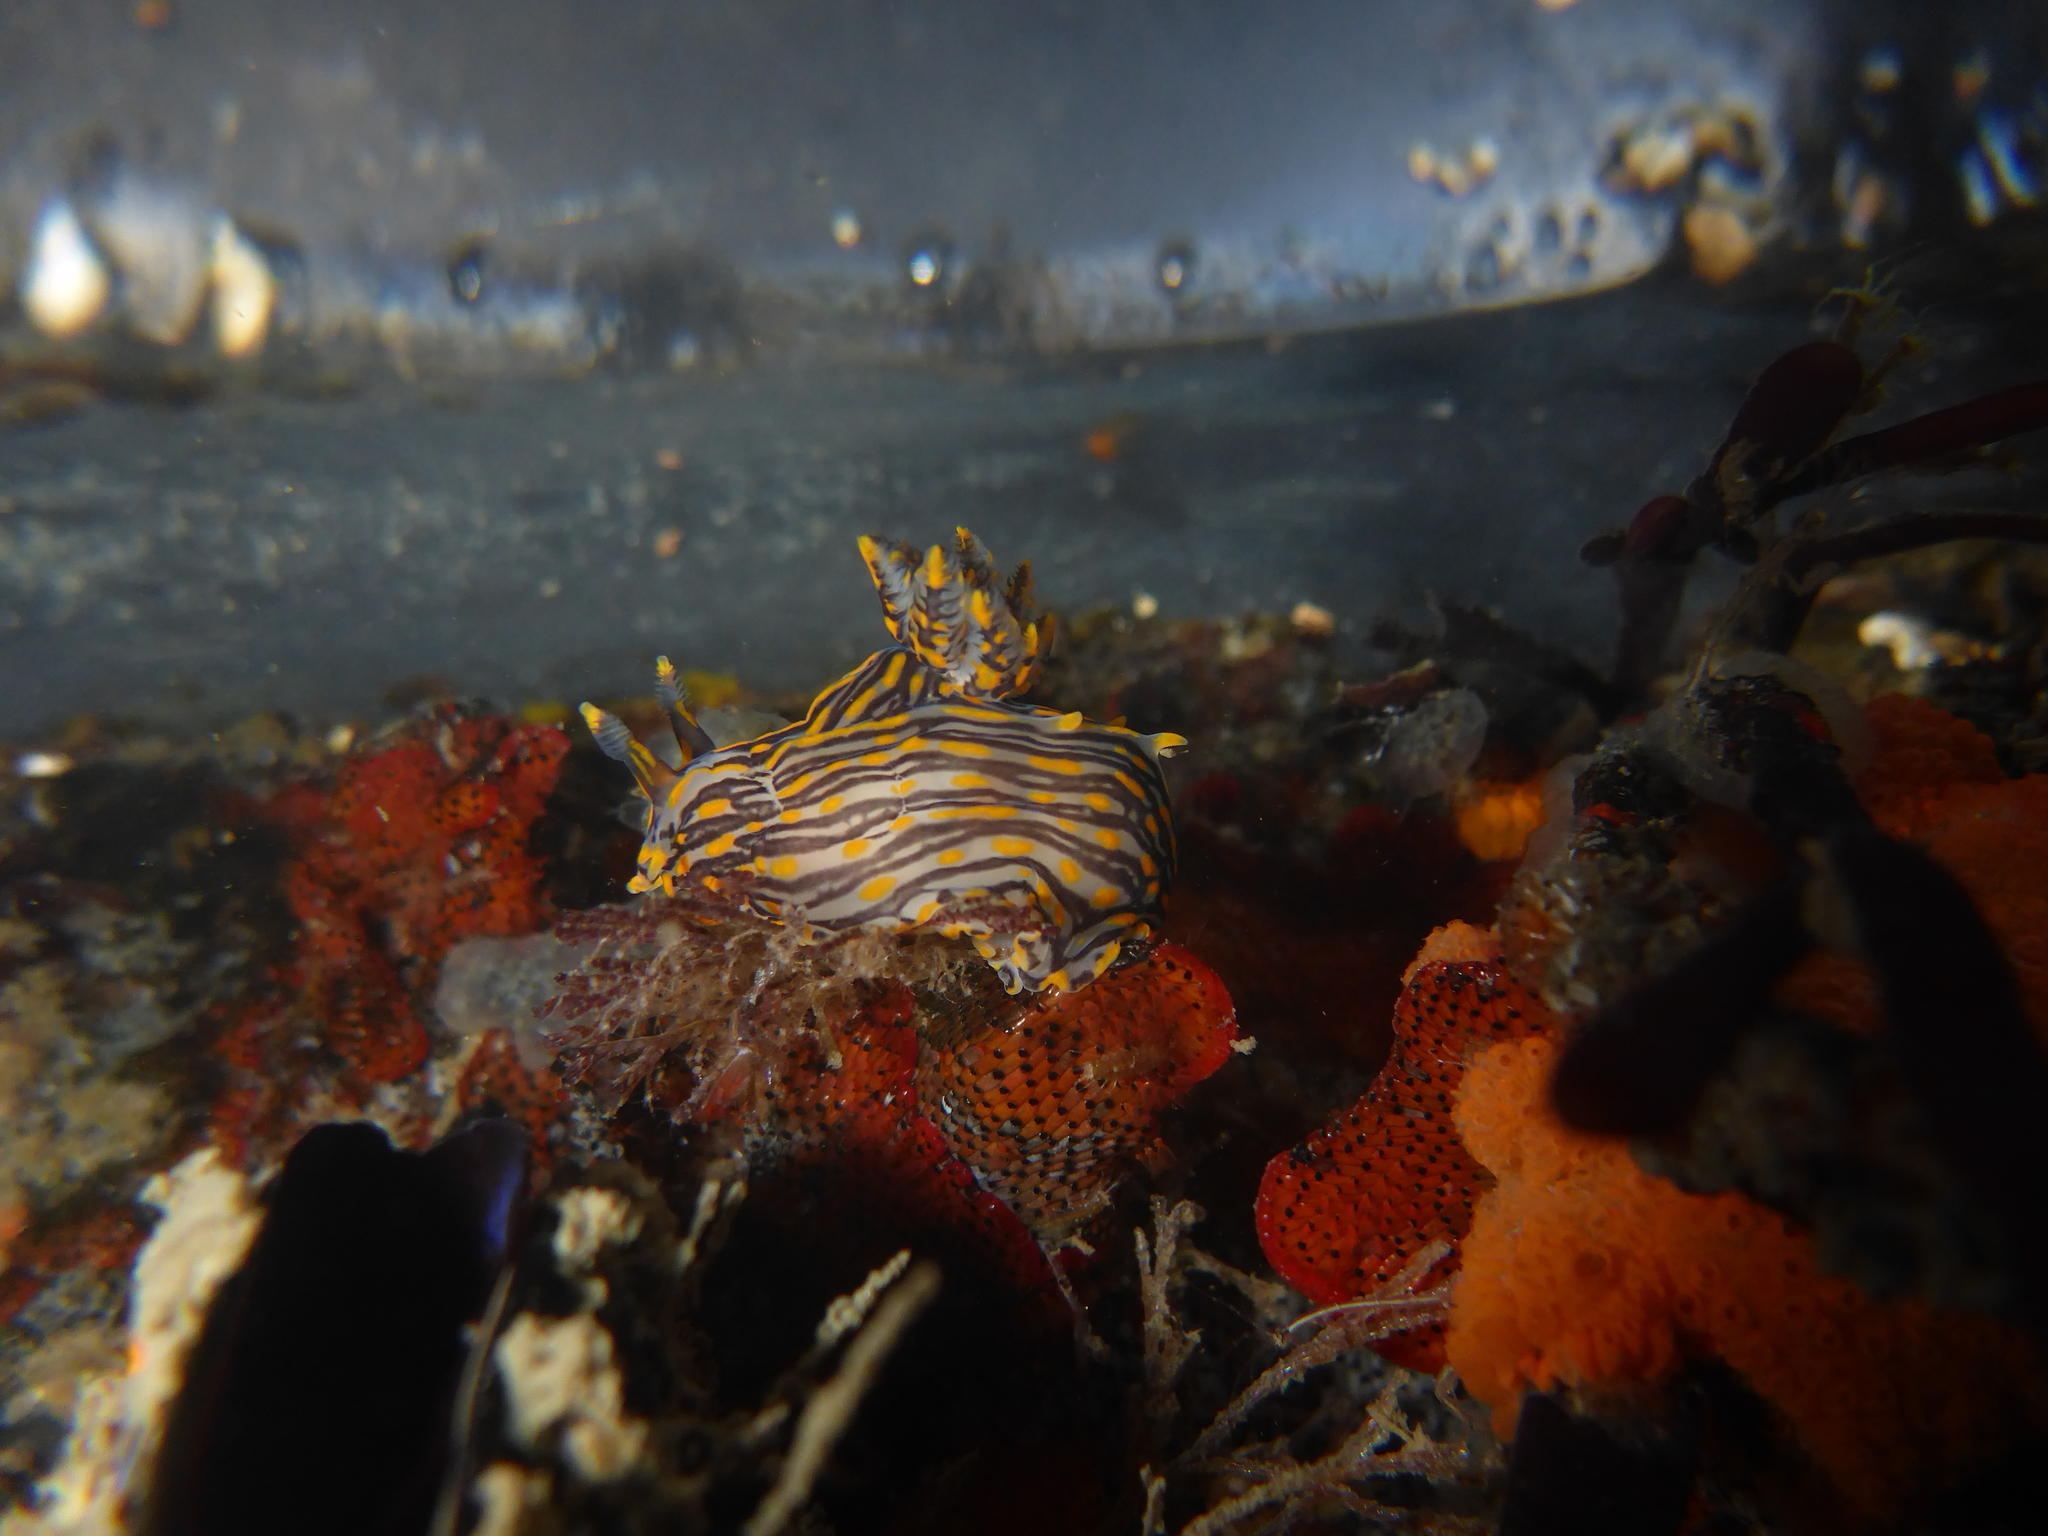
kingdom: Animalia
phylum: Mollusca
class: Gastropoda
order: Nudibranchia
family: Polyceridae
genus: Polycera
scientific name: Polycera atra
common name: Orange-spike polycera
